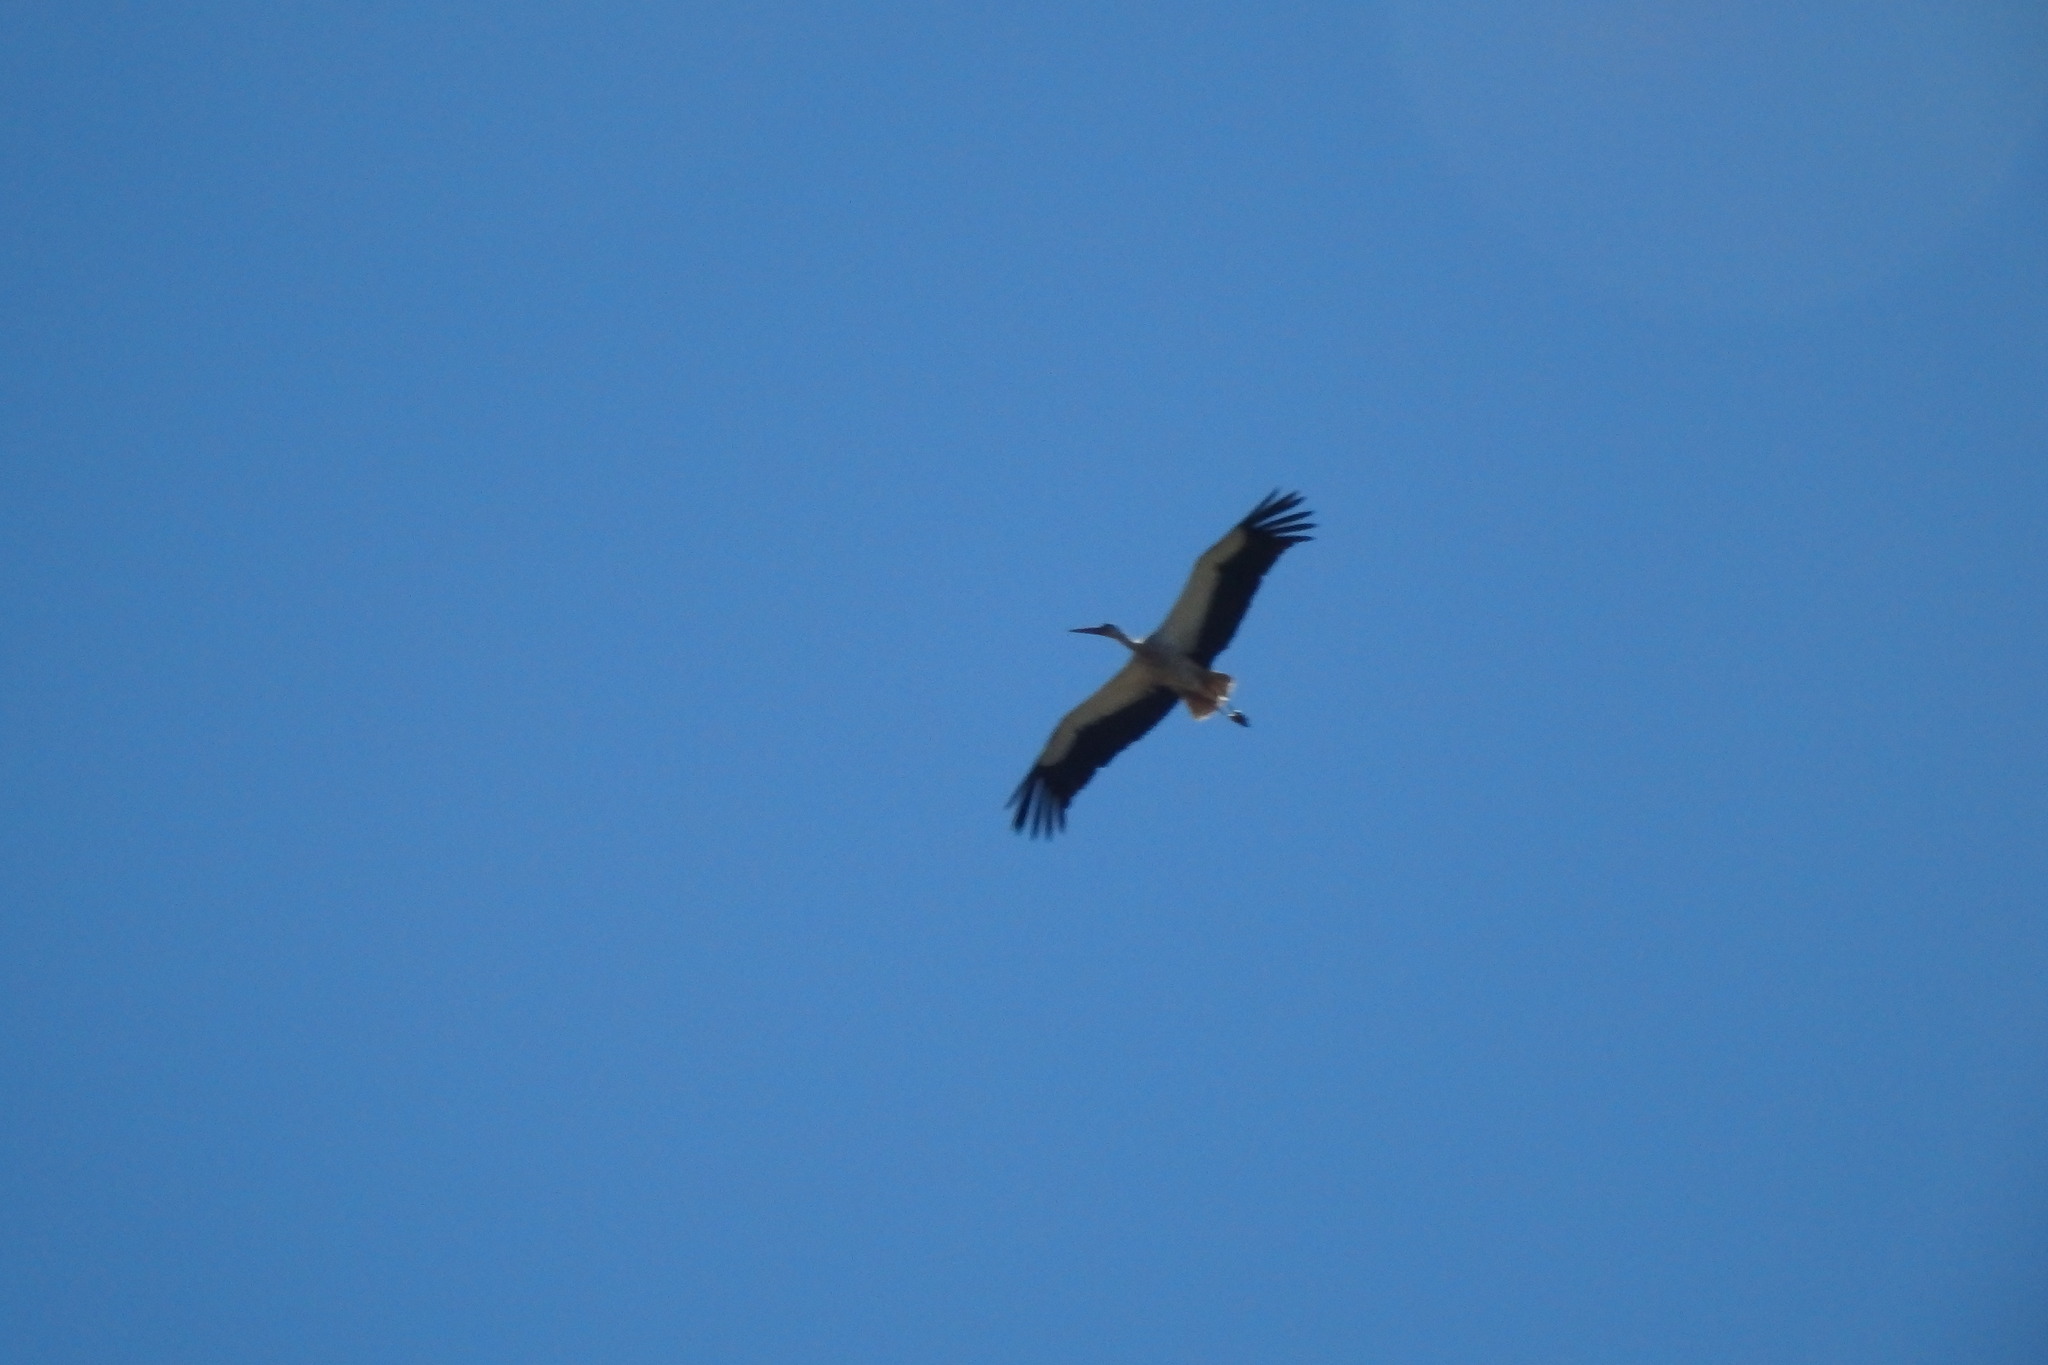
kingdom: Animalia
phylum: Chordata
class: Aves
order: Ciconiiformes
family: Ciconiidae
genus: Ciconia
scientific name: Ciconia ciconia
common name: White stork
